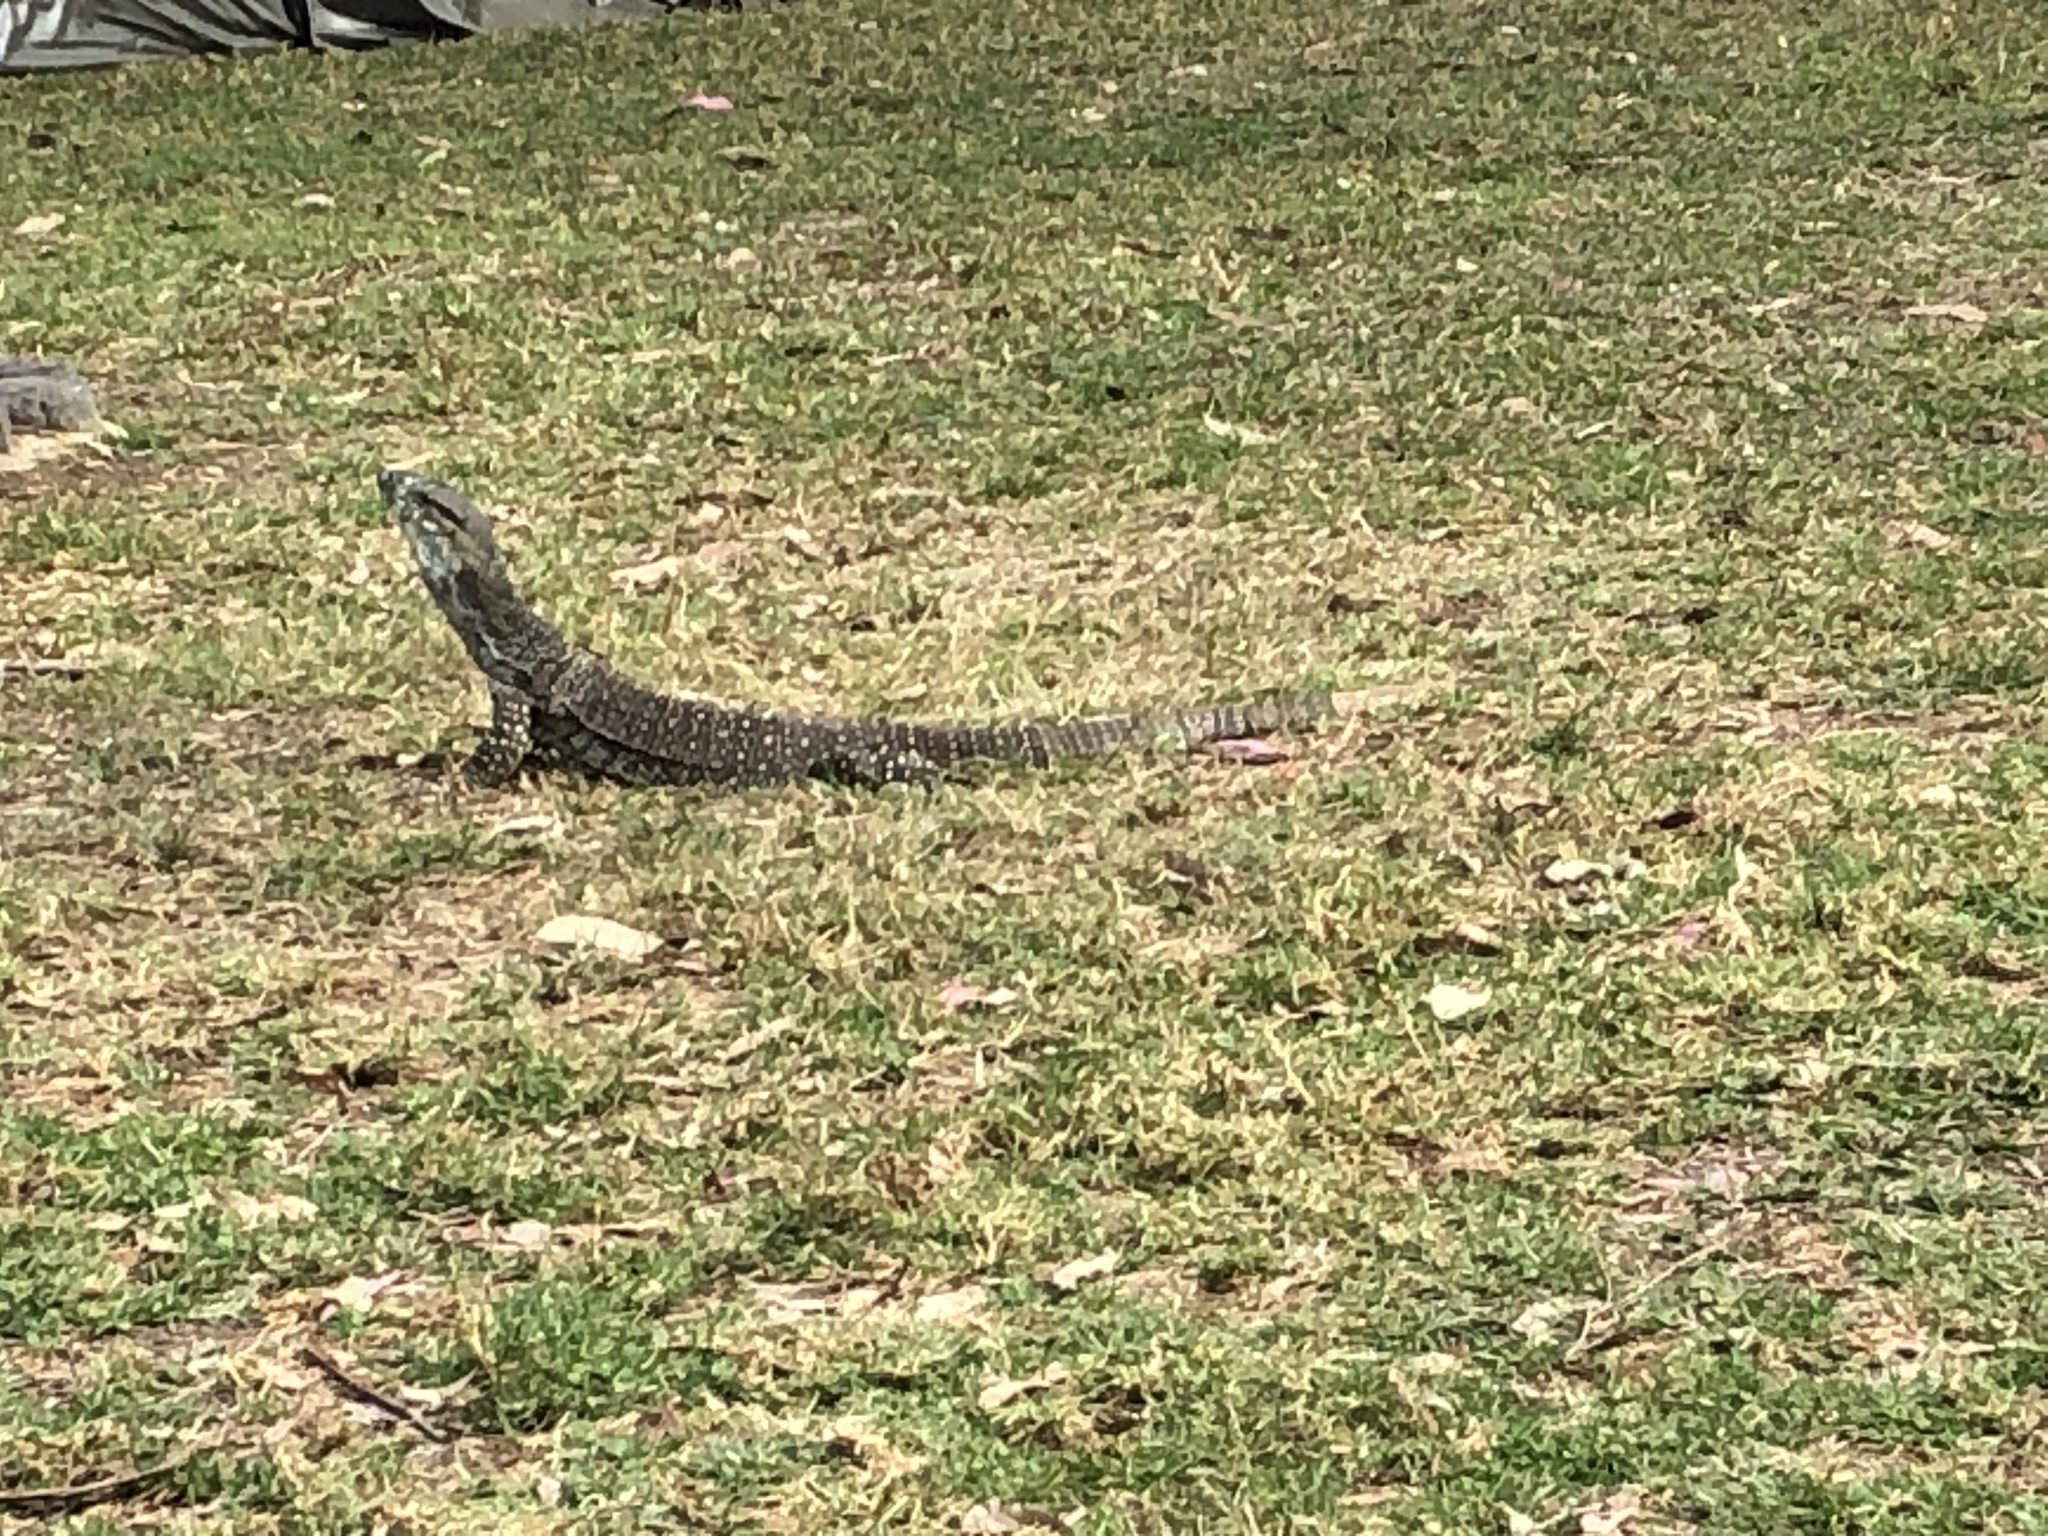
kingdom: Animalia
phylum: Chordata
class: Squamata
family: Varanidae
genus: Varanus
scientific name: Varanus varius
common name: Lace monitor
